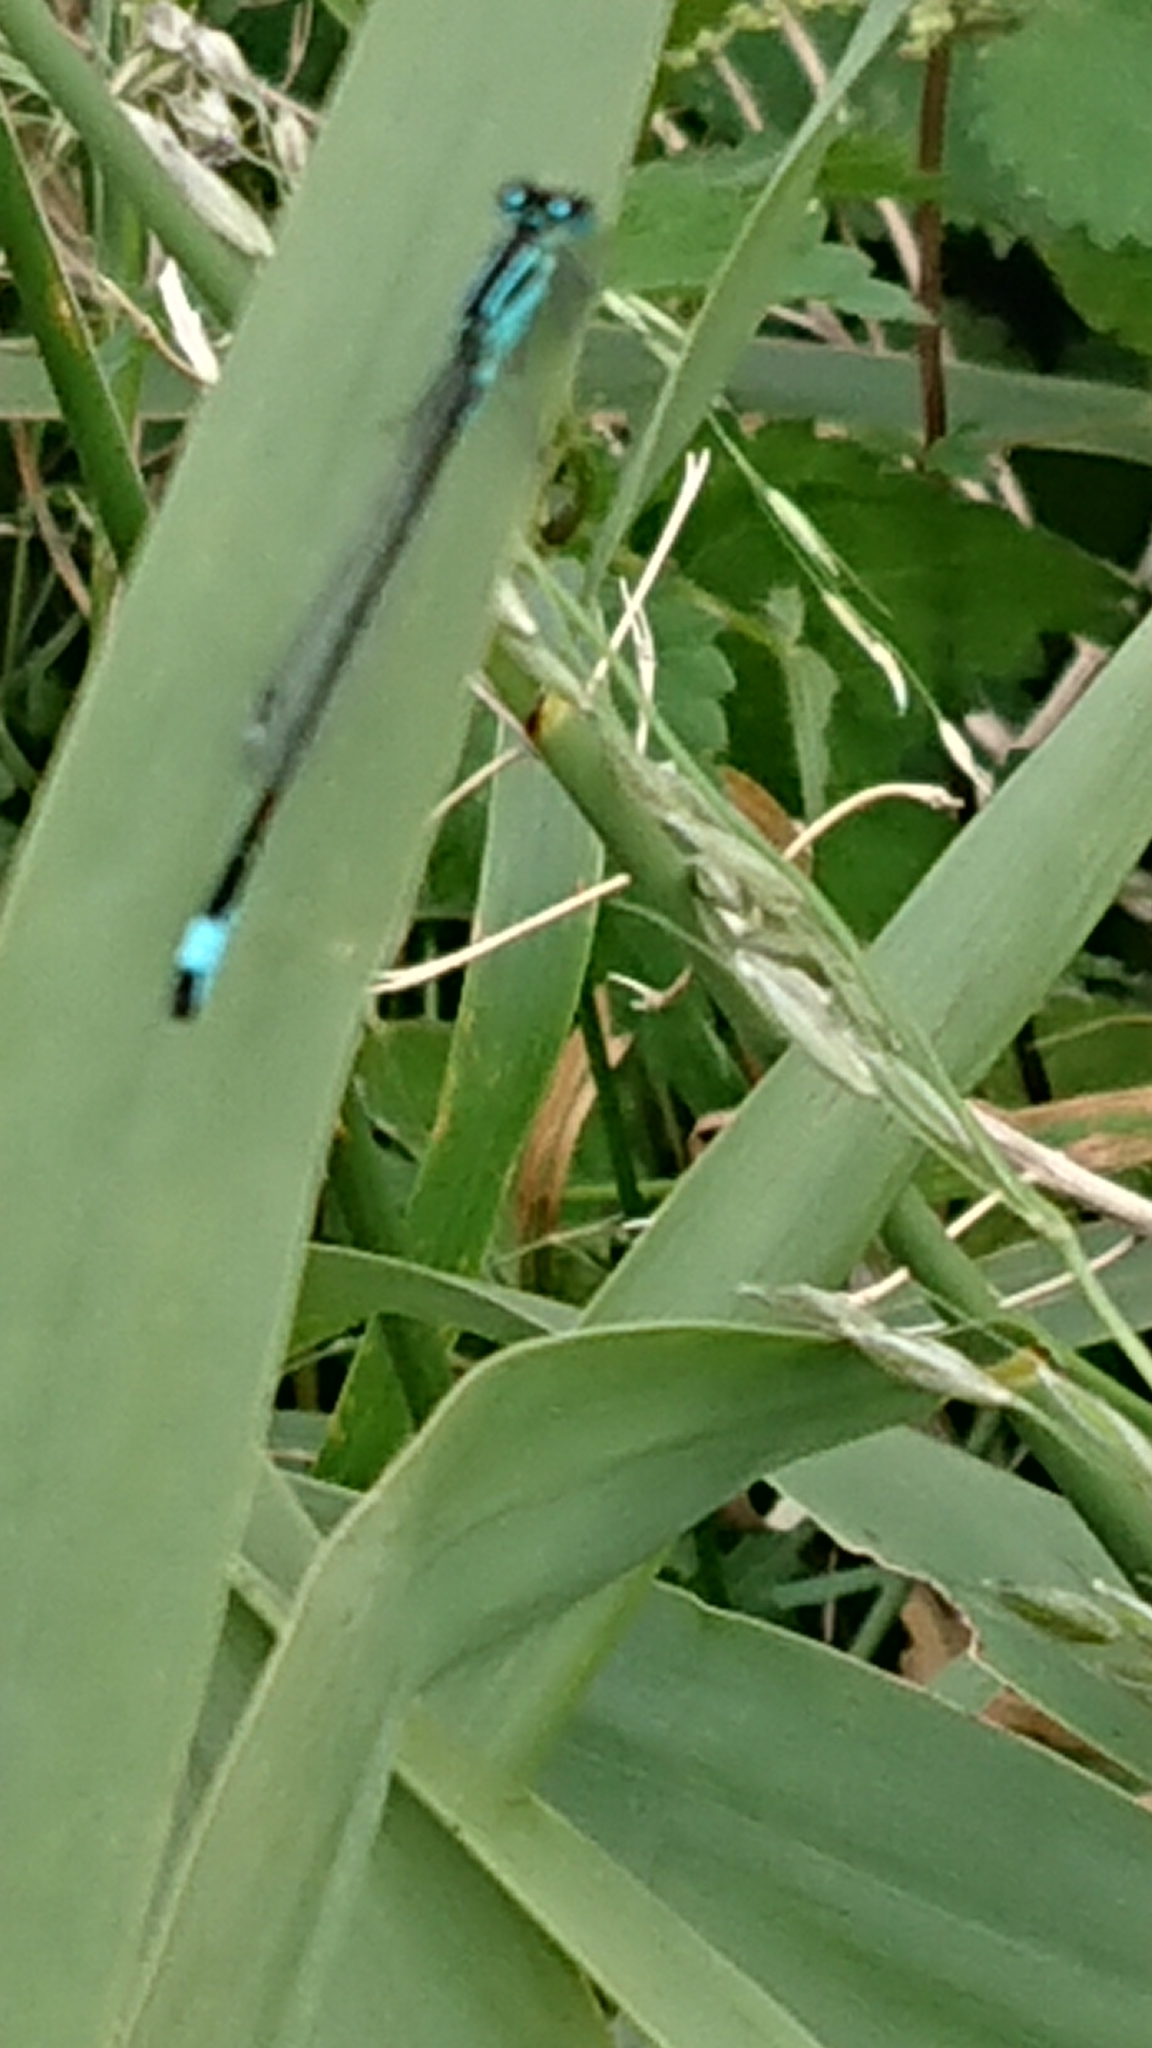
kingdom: Animalia
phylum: Arthropoda
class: Insecta
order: Odonata
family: Coenagrionidae
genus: Ischnura
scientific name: Ischnura elegans
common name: Blue-tailed damselfly
